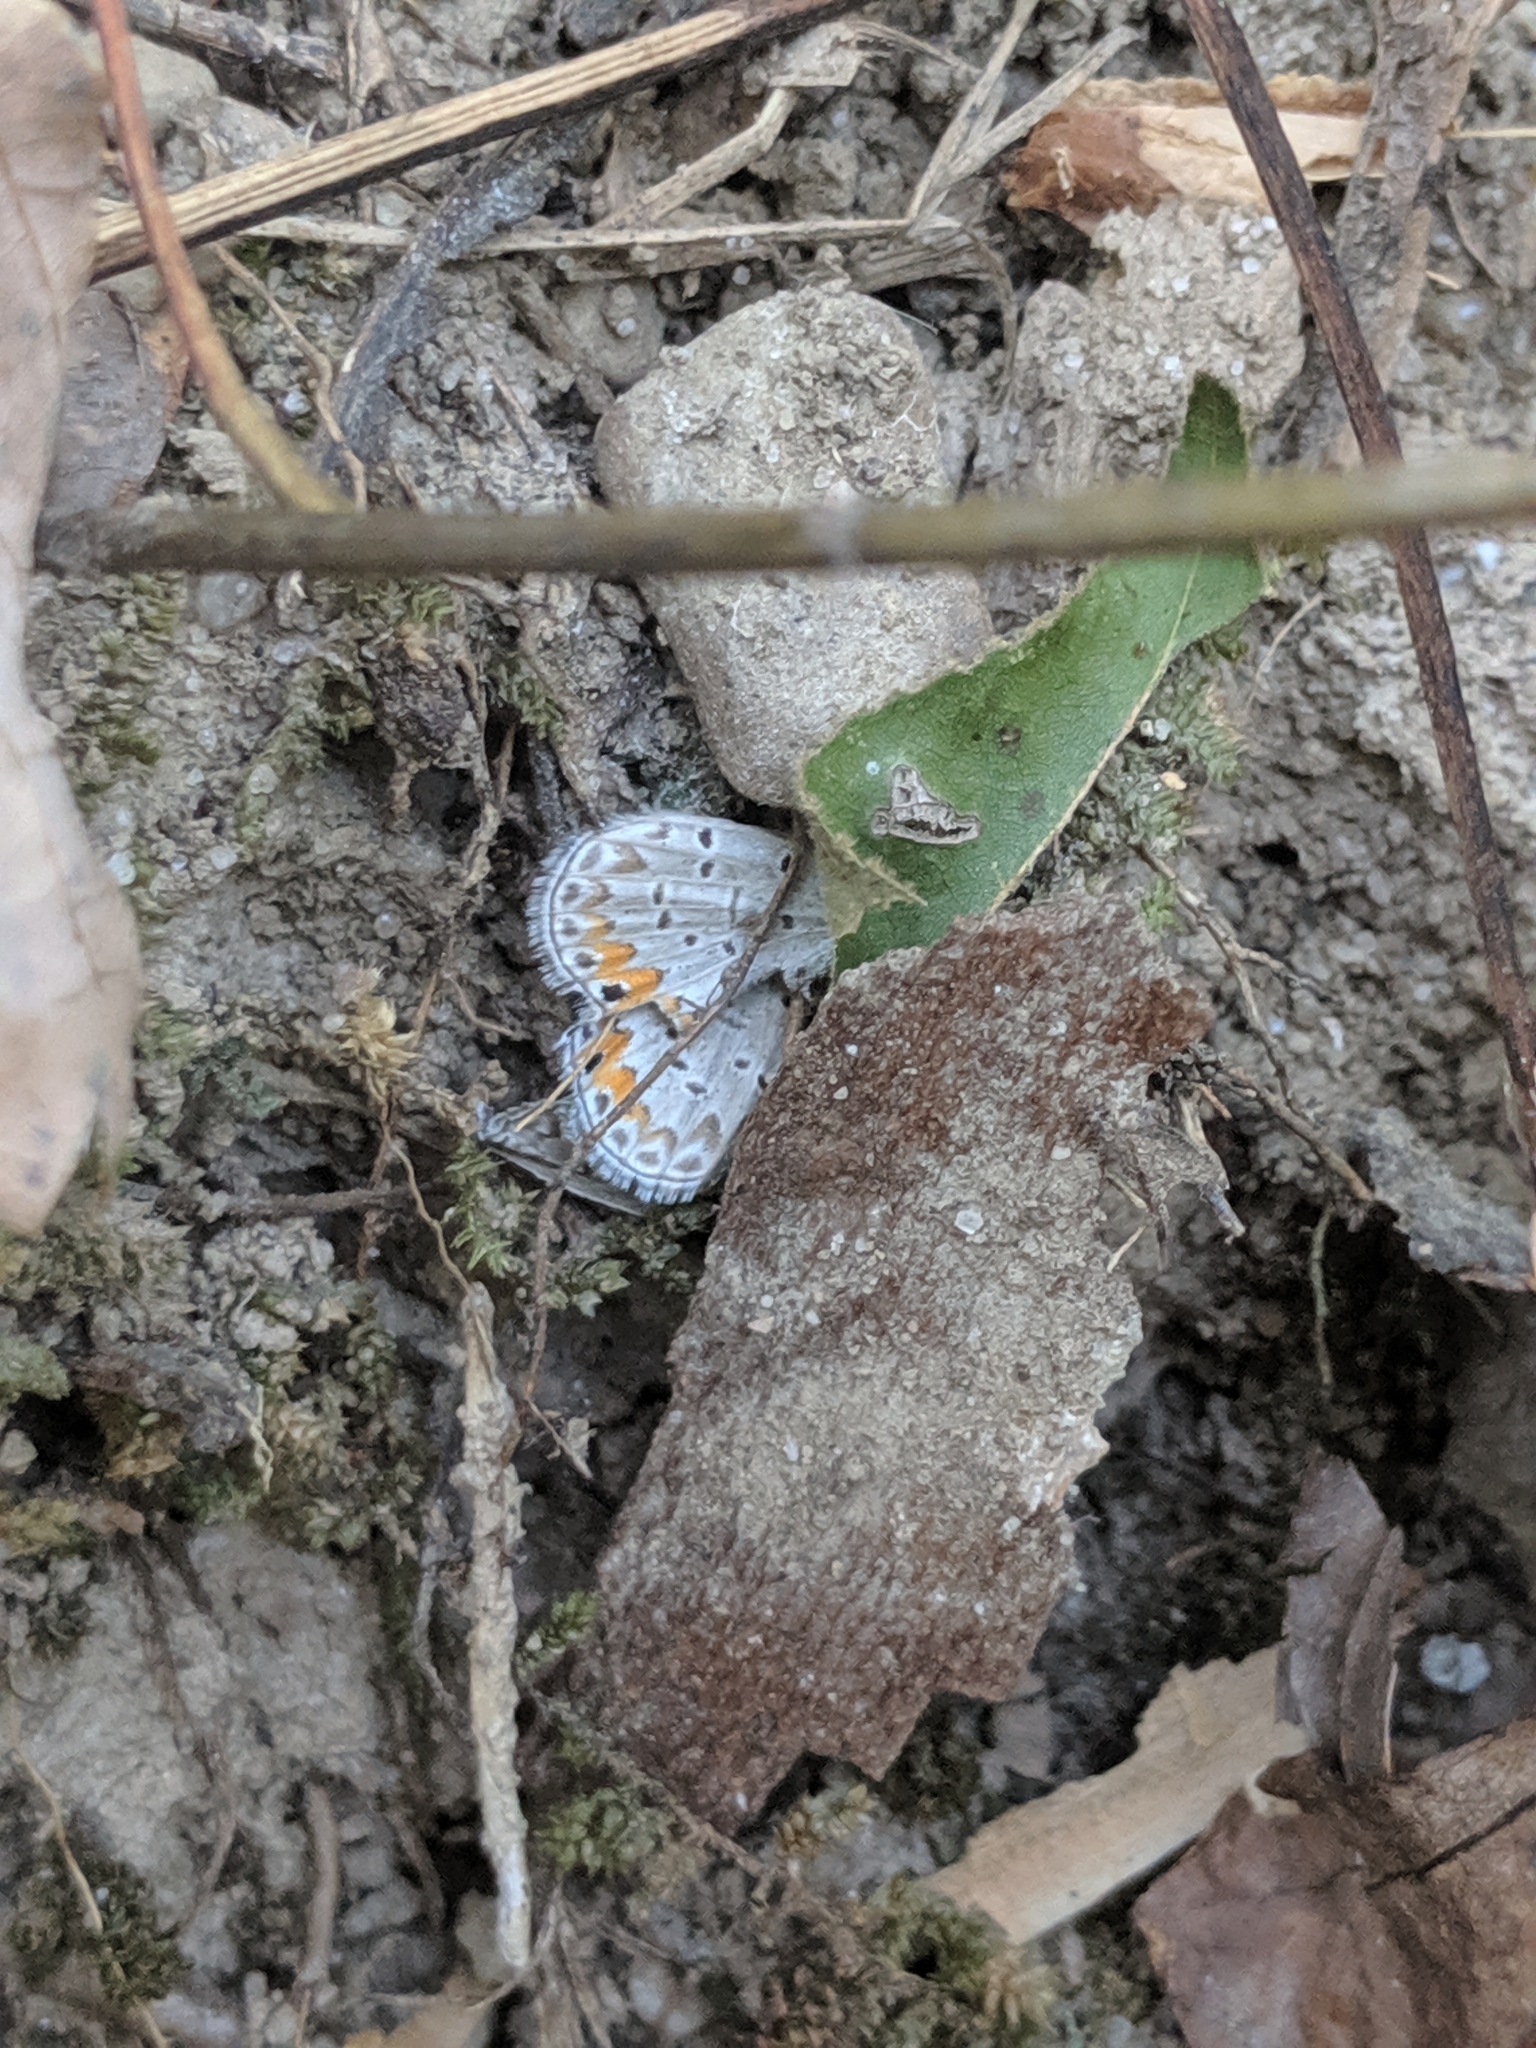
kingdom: Animalia
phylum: Arthropoda
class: Insecta
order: Lepidoptera
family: Lycaenidae
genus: Elkalyce
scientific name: Elkalyce comyntas
